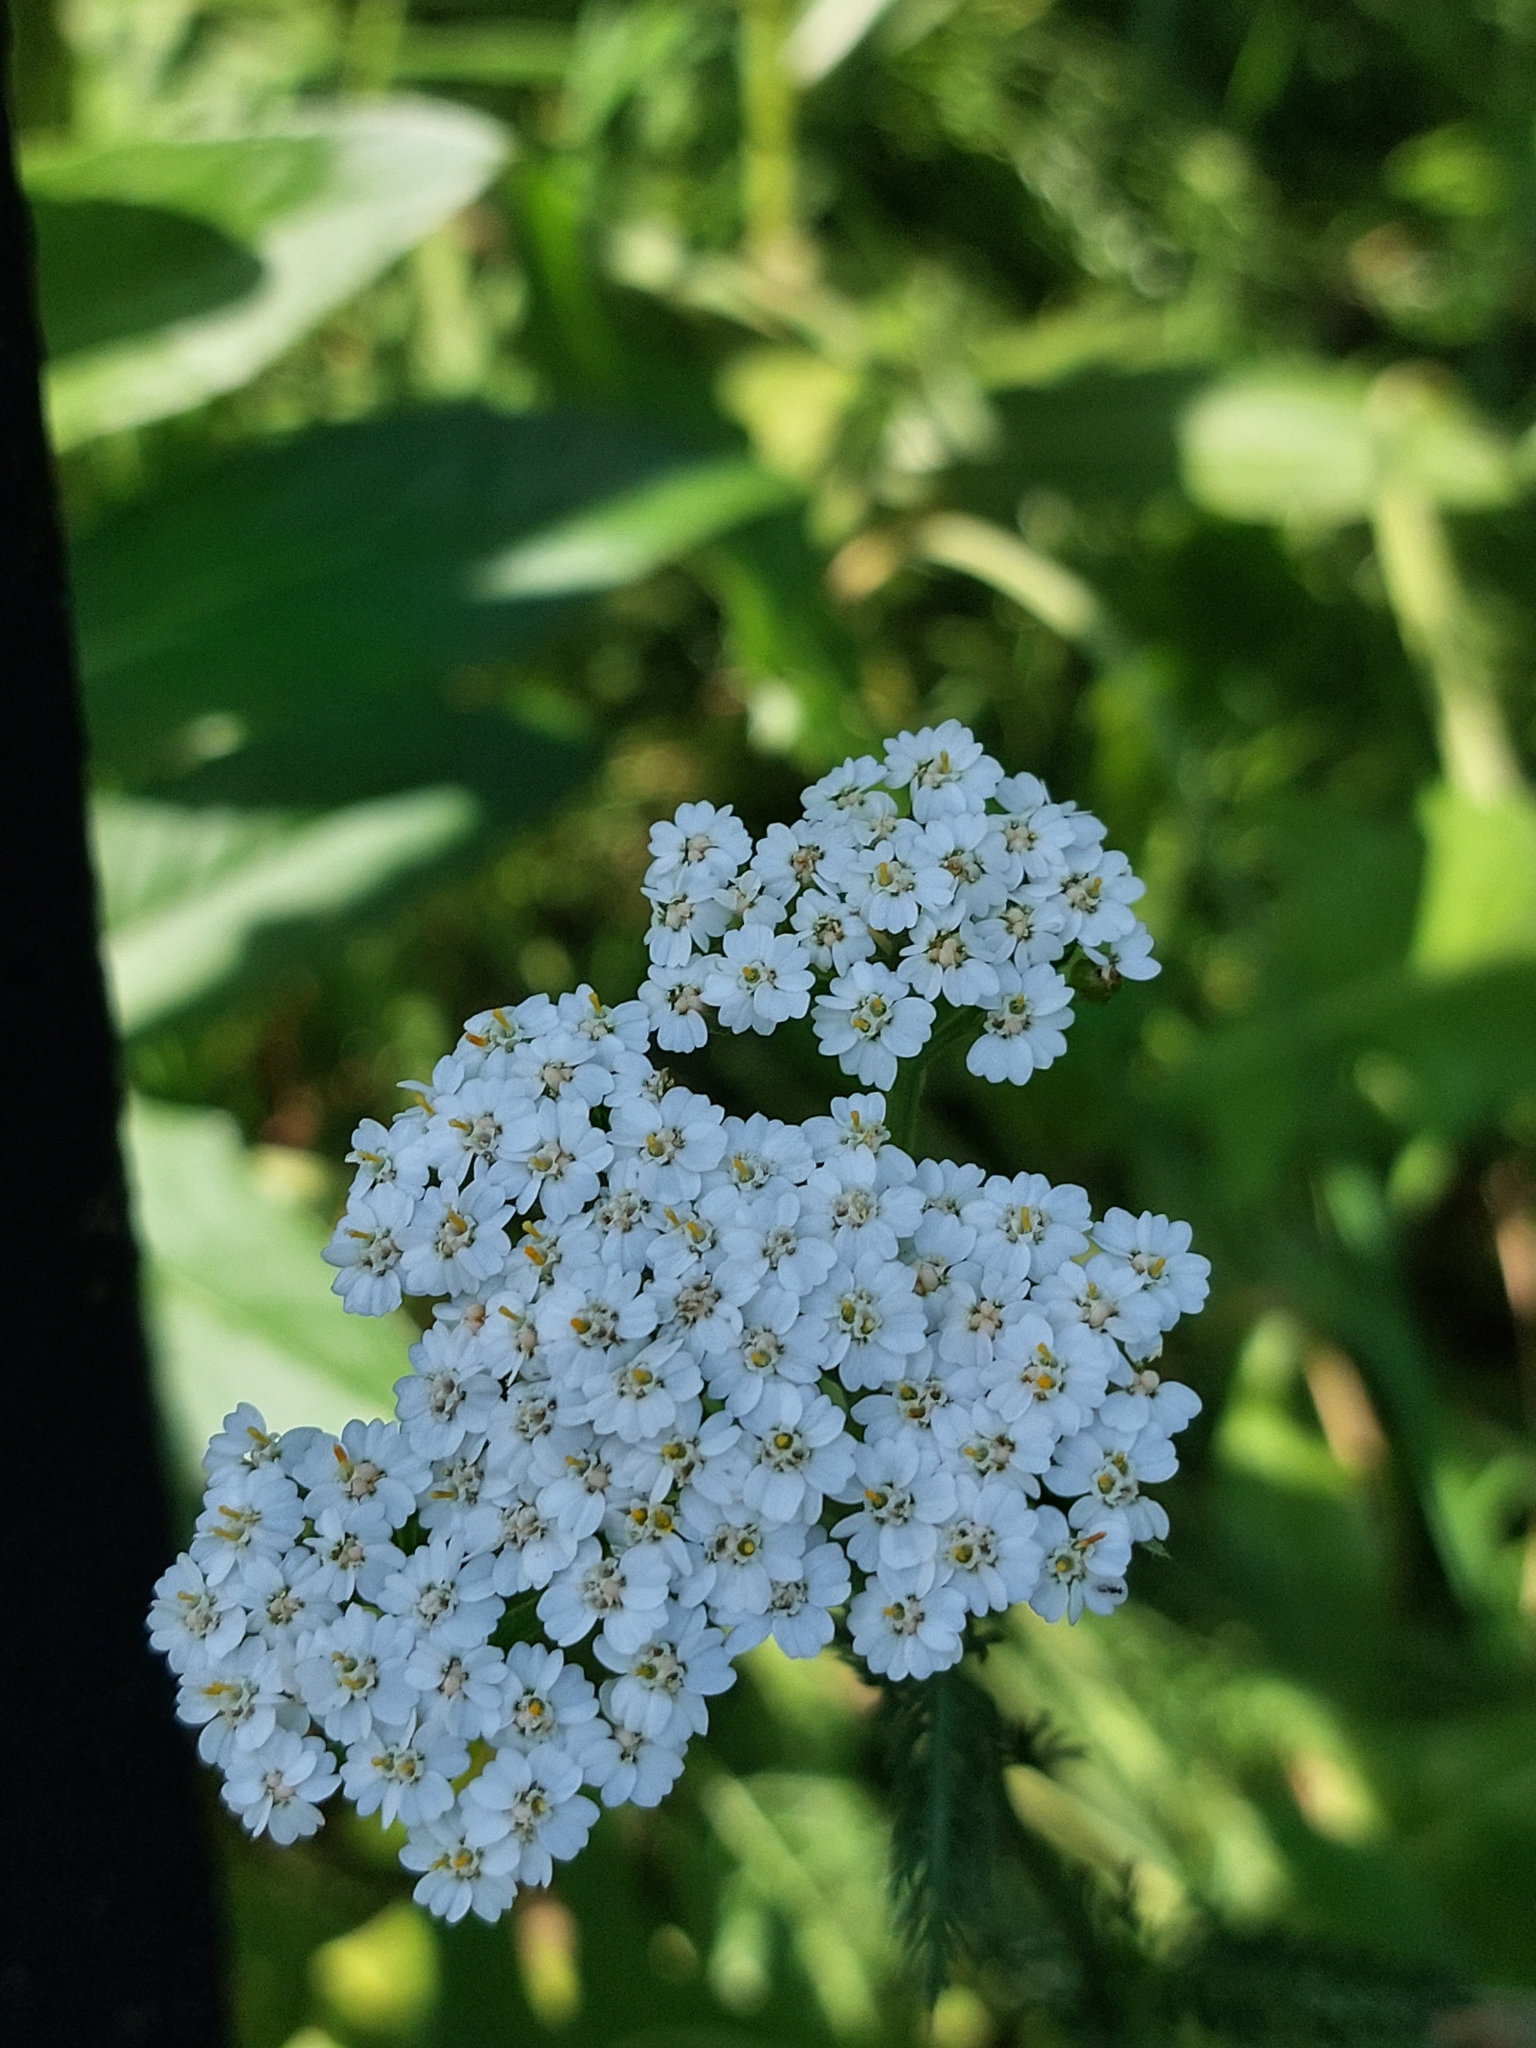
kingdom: Plantae
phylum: Tracheophyta
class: Magnoliopsida
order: Asterales
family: Asteraceae
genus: Achillea
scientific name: Achillea millefolium
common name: Yarrow
